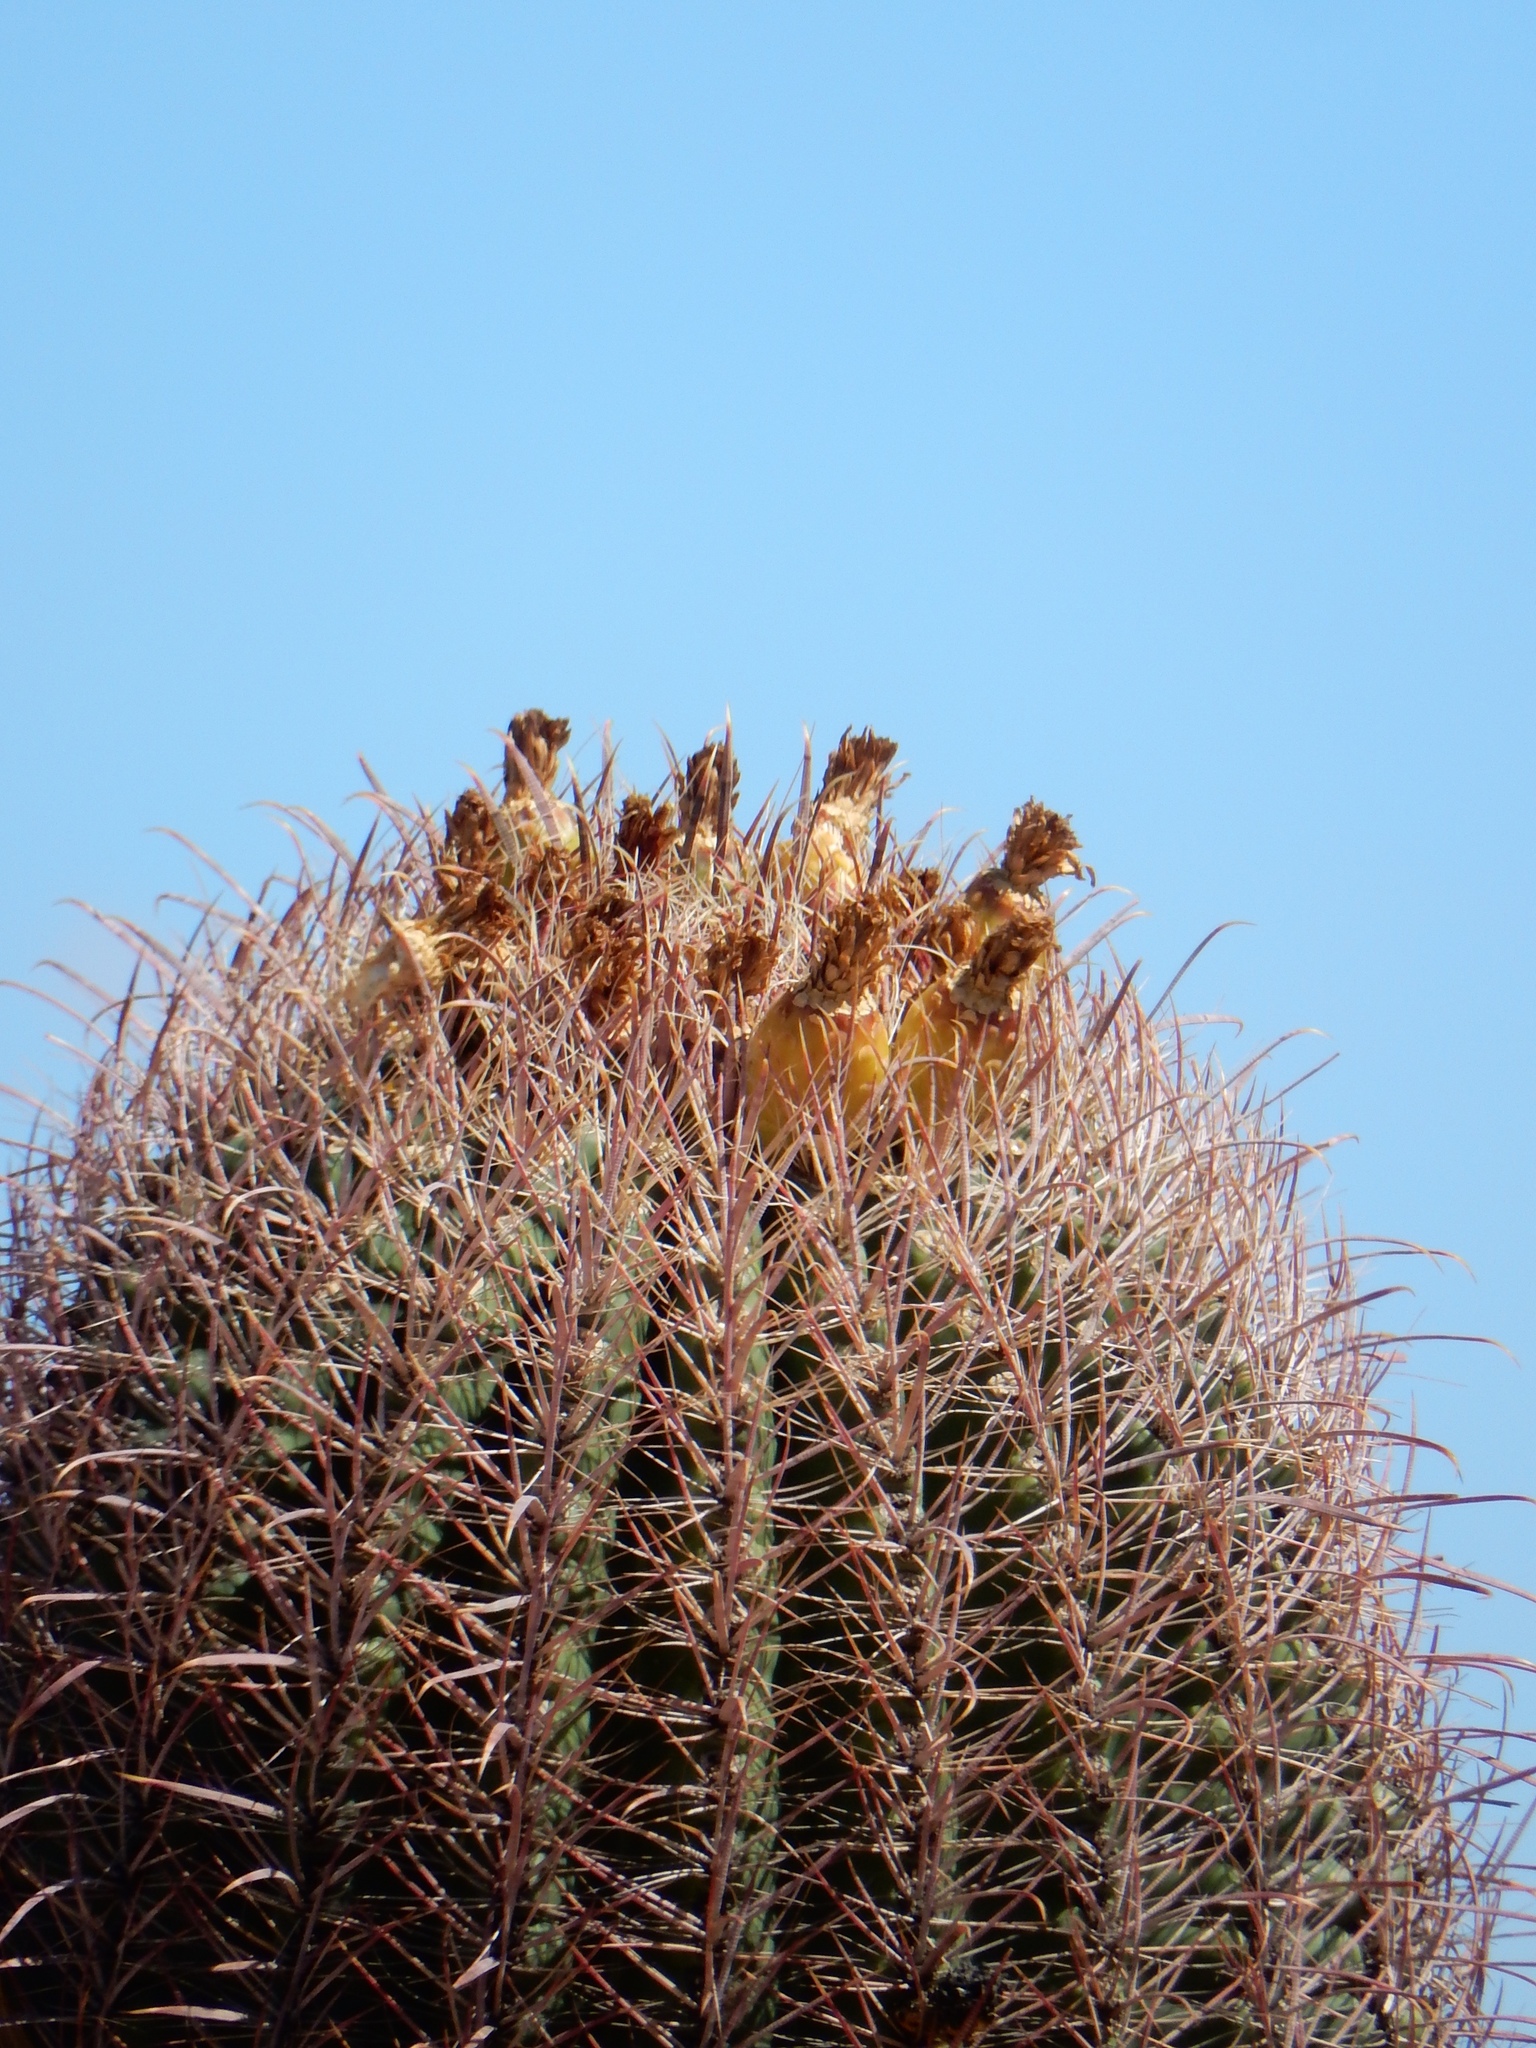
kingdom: Plantae
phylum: Tracheophyta
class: Magnoliopsida
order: Caryophyllales
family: Cactaceae
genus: Ferocactus
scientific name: Ferocactus cylindraceus
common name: California barrel cactus
